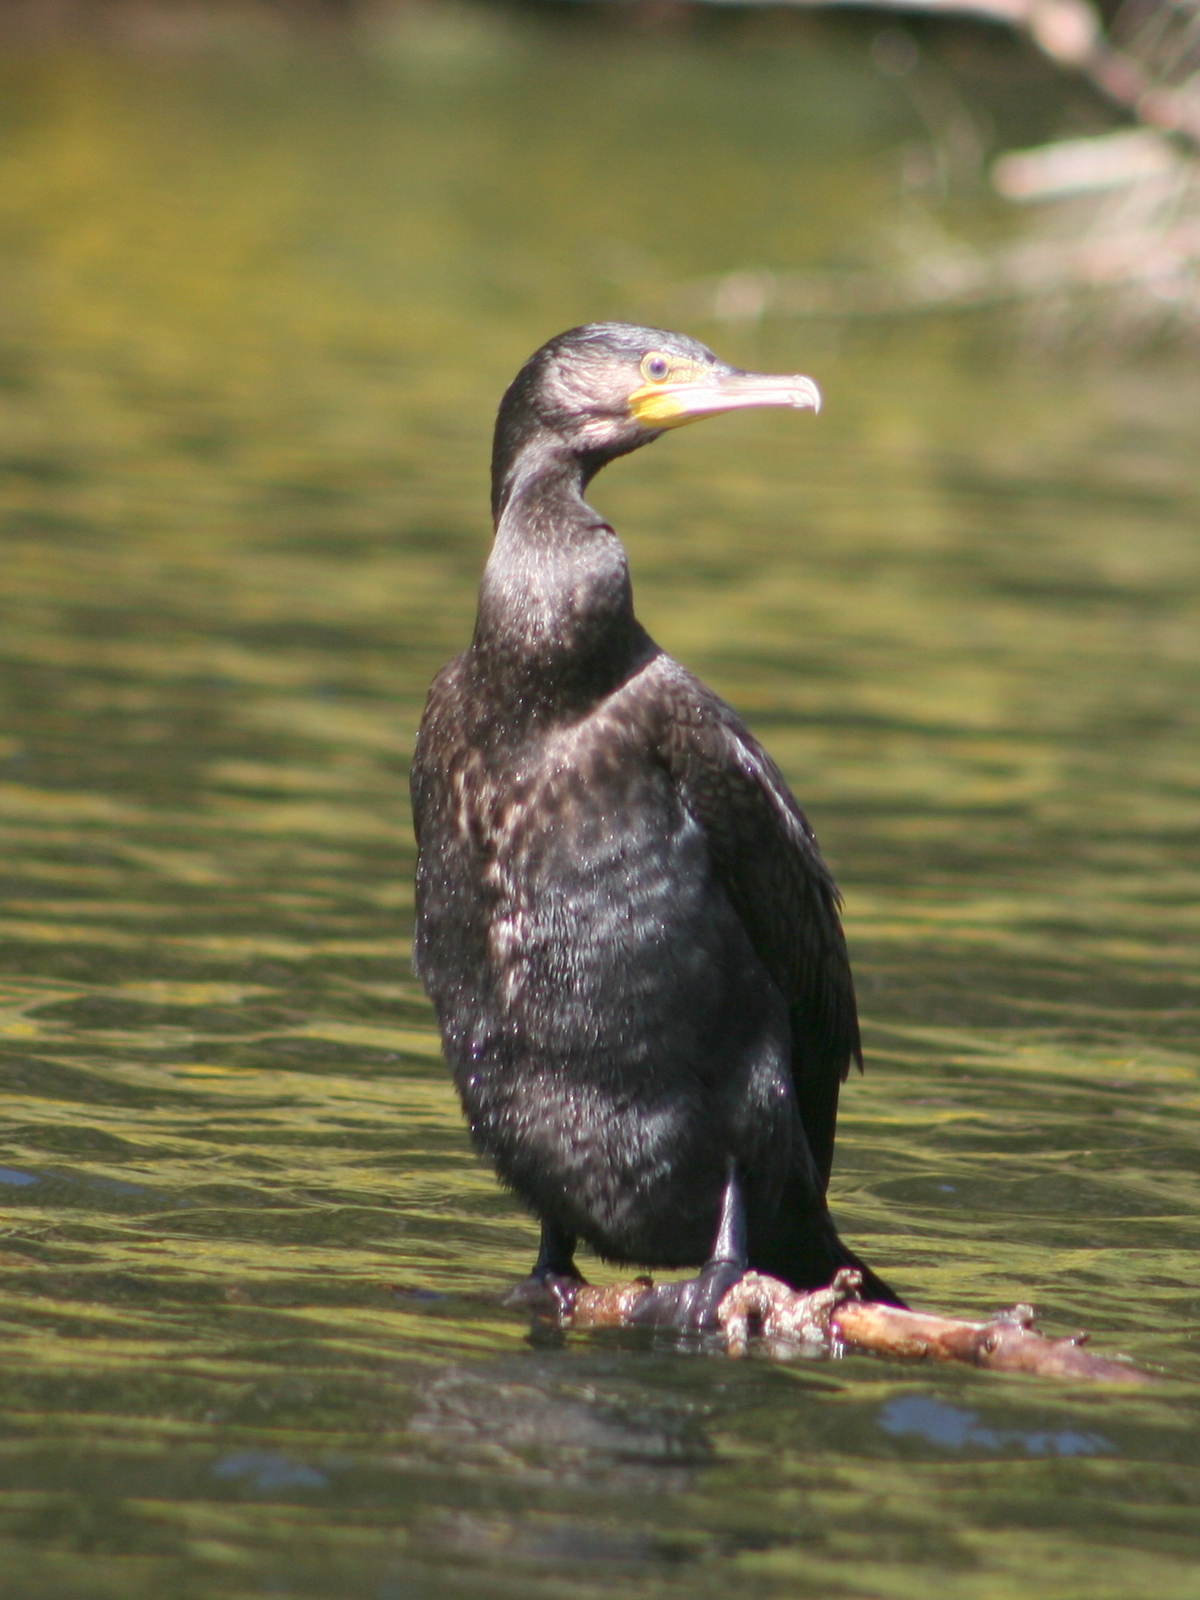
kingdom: Animalia
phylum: Chordata
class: Aves
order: Suliformes
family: Phalacrocoracidae
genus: Phalacrocorax
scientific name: Phalacrocorax carbo
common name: Great cormorant
